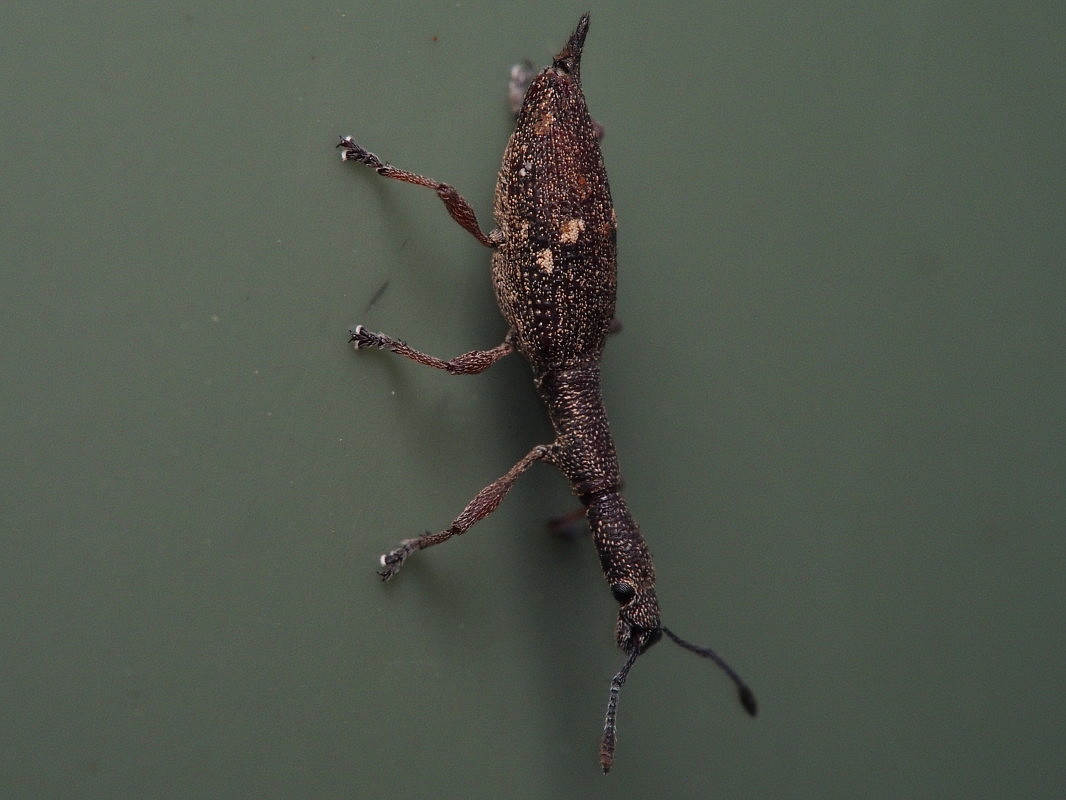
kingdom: Animalia
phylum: Arthropoda
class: Insecta
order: Coleoptera
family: Curculionidae
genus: Rhadinosomus
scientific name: Rhadinosomus acuminatus
